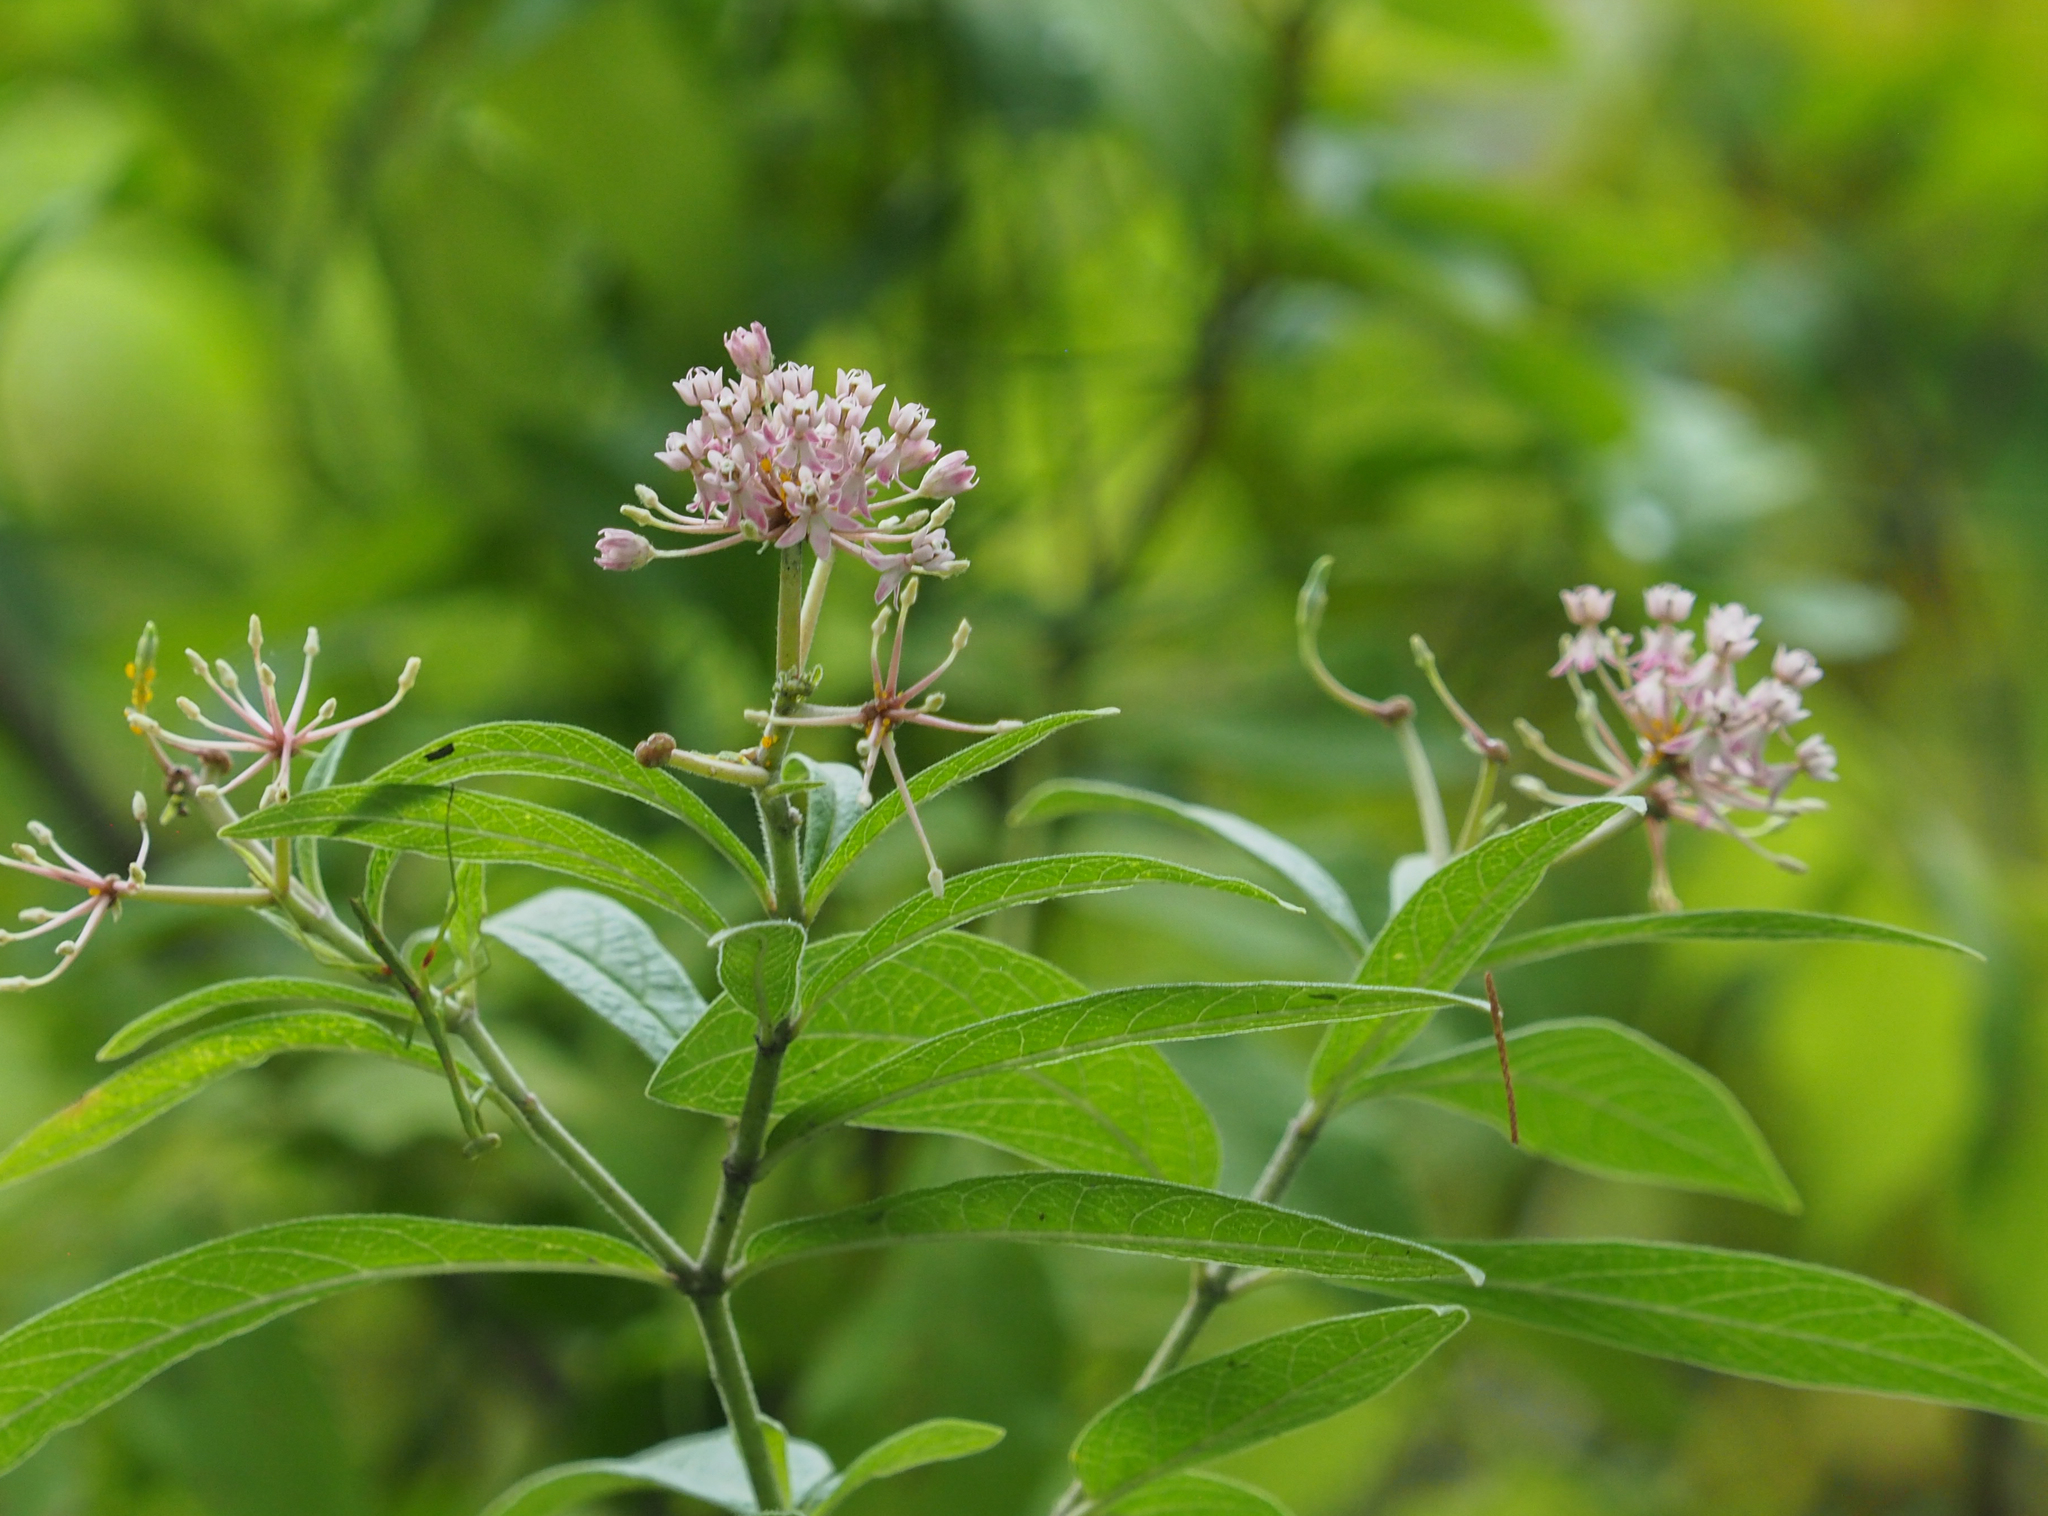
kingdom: Plantae
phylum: Tracheophyta
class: Magnoliopsida
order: Gentianales
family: Apocynaceae
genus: Asclepias
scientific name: Asclepias incarnata
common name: Swamp milkweed
